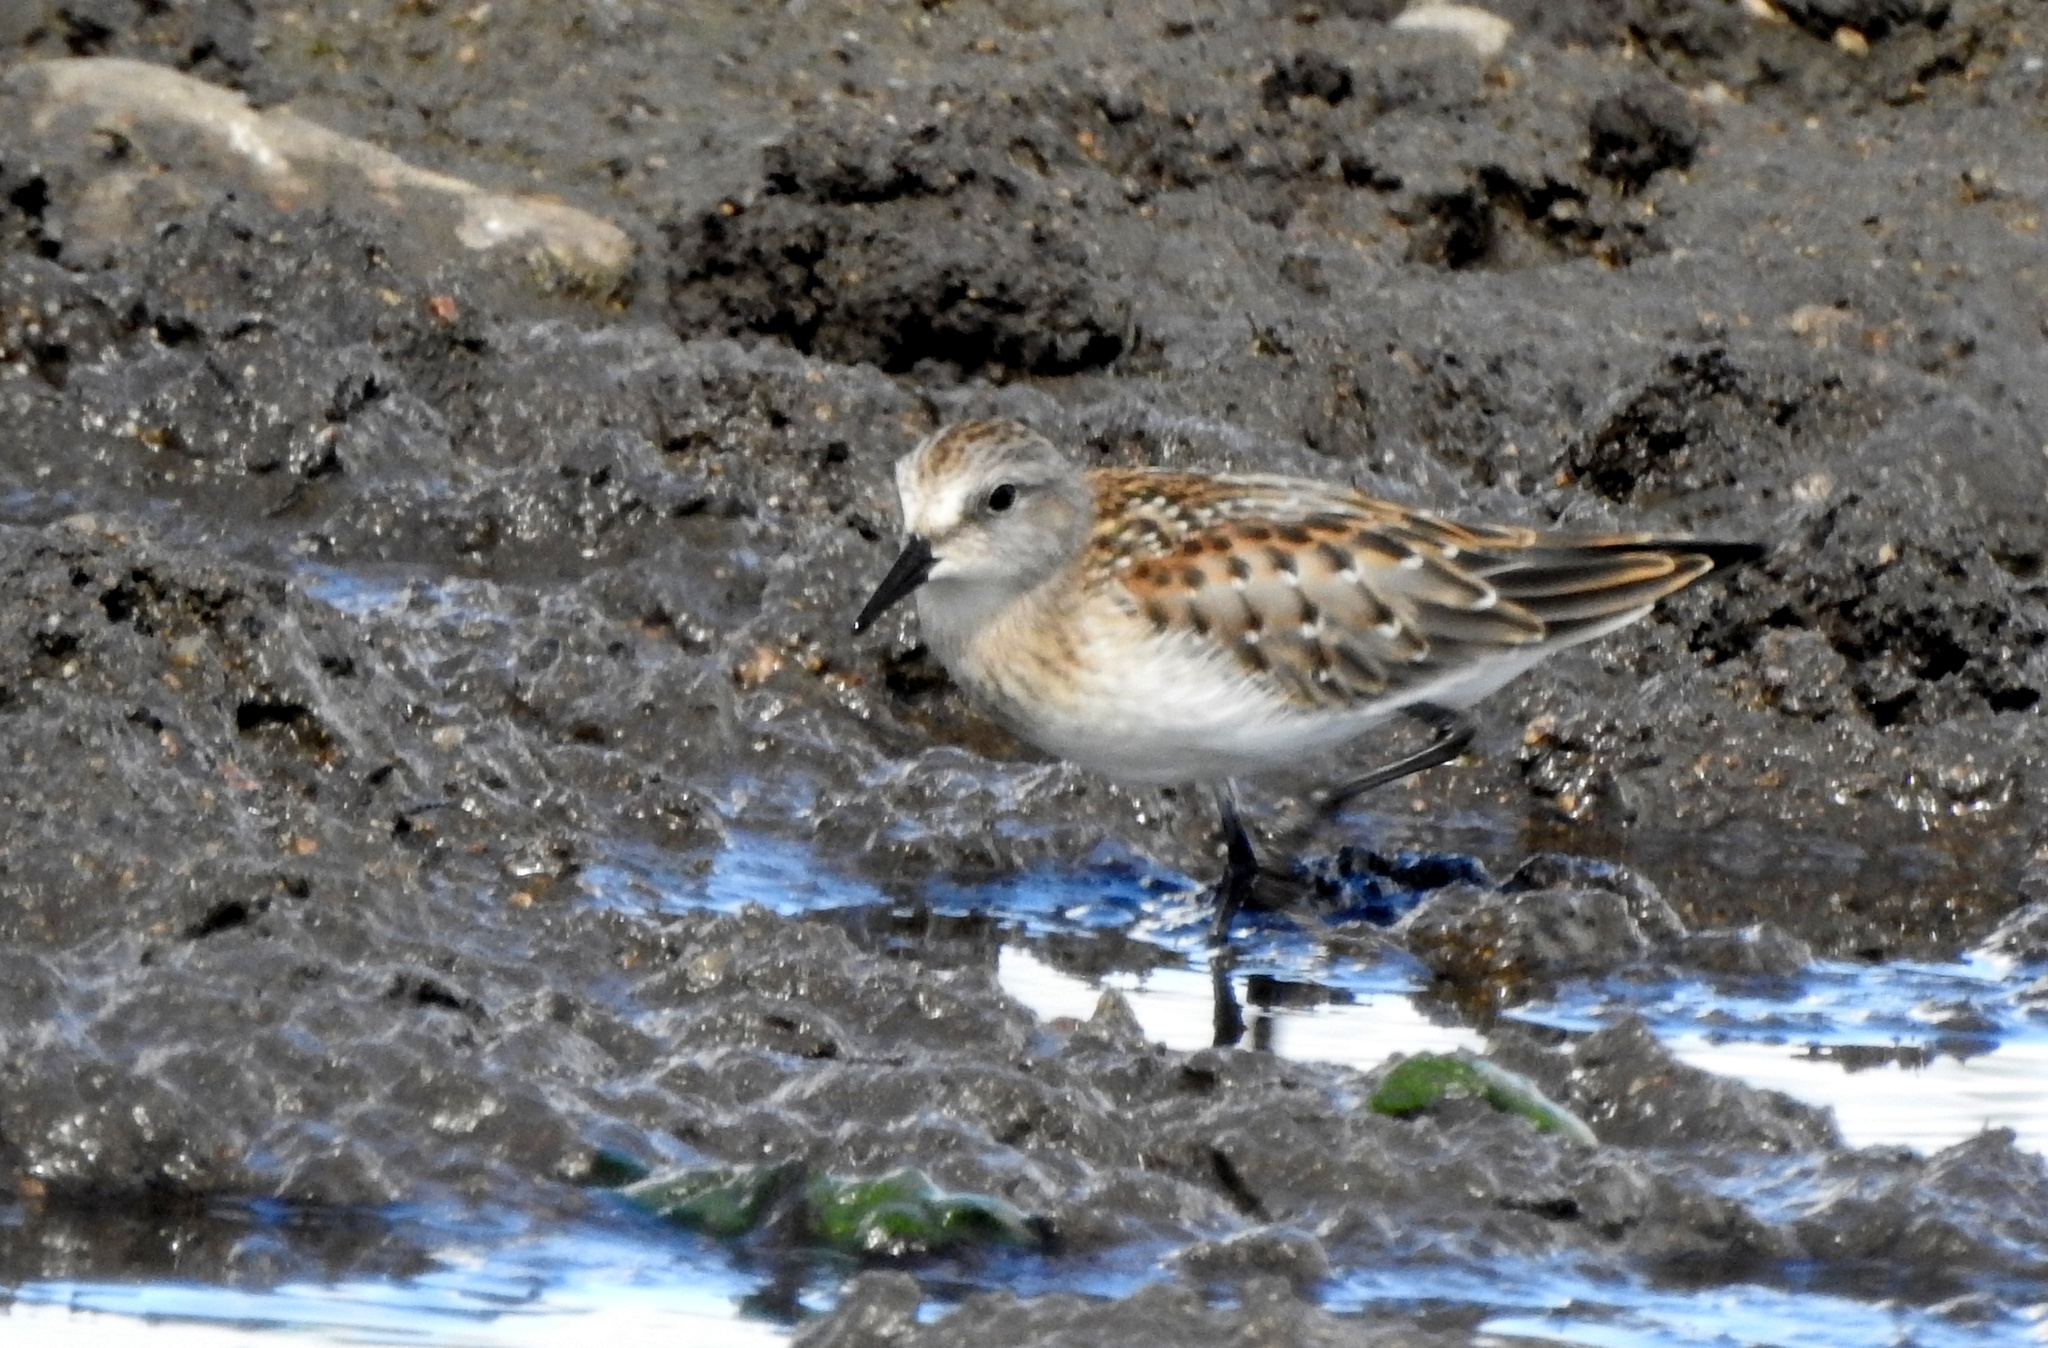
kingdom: Animalia
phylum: Chordata
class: Aves
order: Charadriiformes
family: Scolopacidae
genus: Calidris
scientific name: Calidris ruficollis
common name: Red-necked stint
